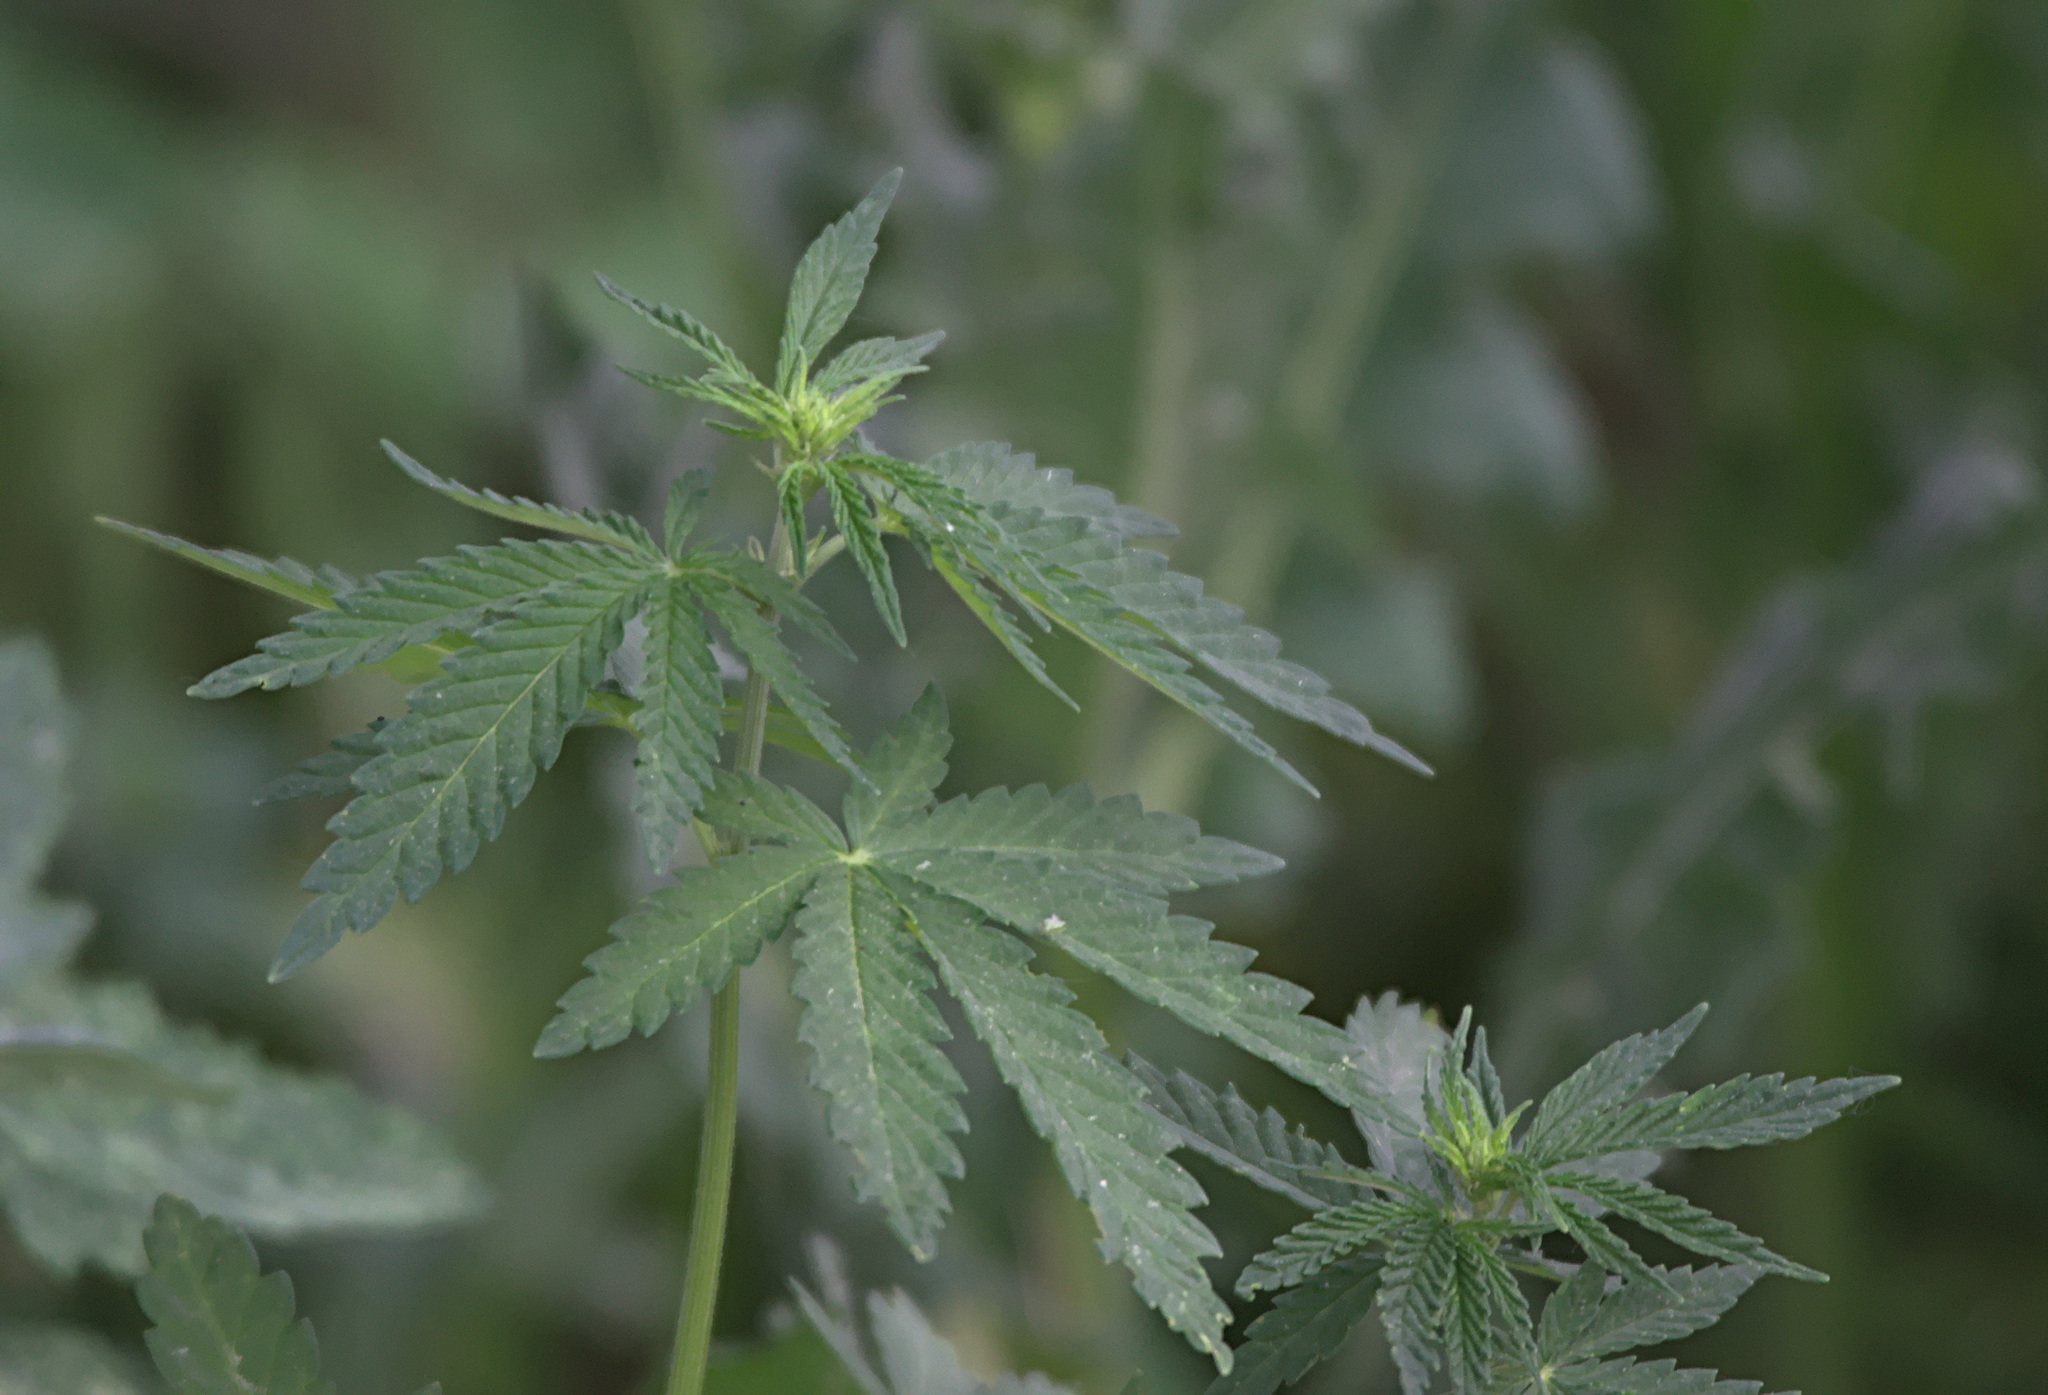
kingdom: Plantae
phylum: Tracheophyta
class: Magnoliopsida
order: Rosales
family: Cannabaceae
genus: Cannabis
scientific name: Cannabis sativa
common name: Hemp
